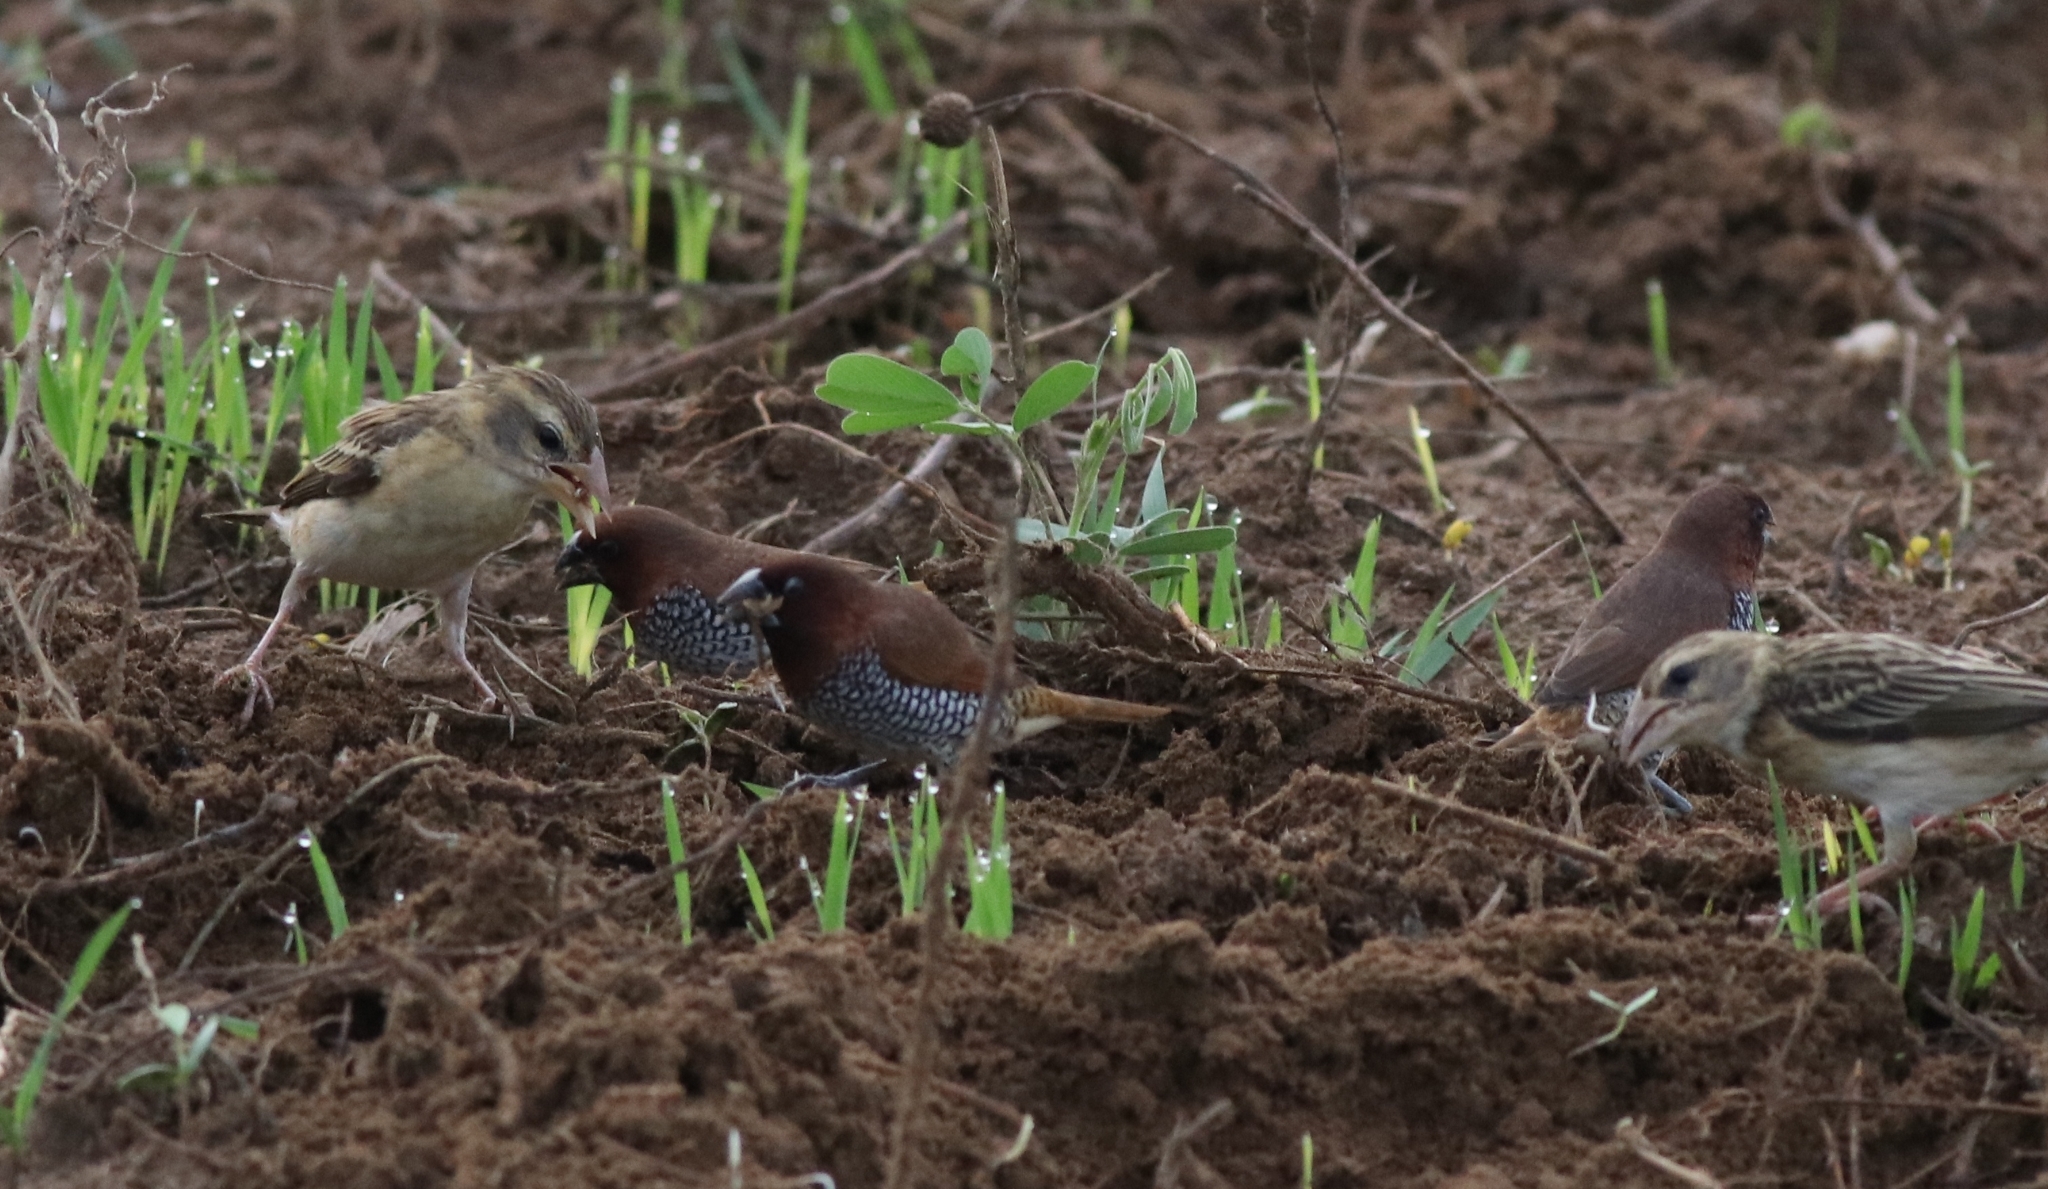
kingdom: Animalia
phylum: Chordata
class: Aves
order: Passeriformes
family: Ploceidae
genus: Ploceus
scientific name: Ploceus philippinus
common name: Baya weaver
